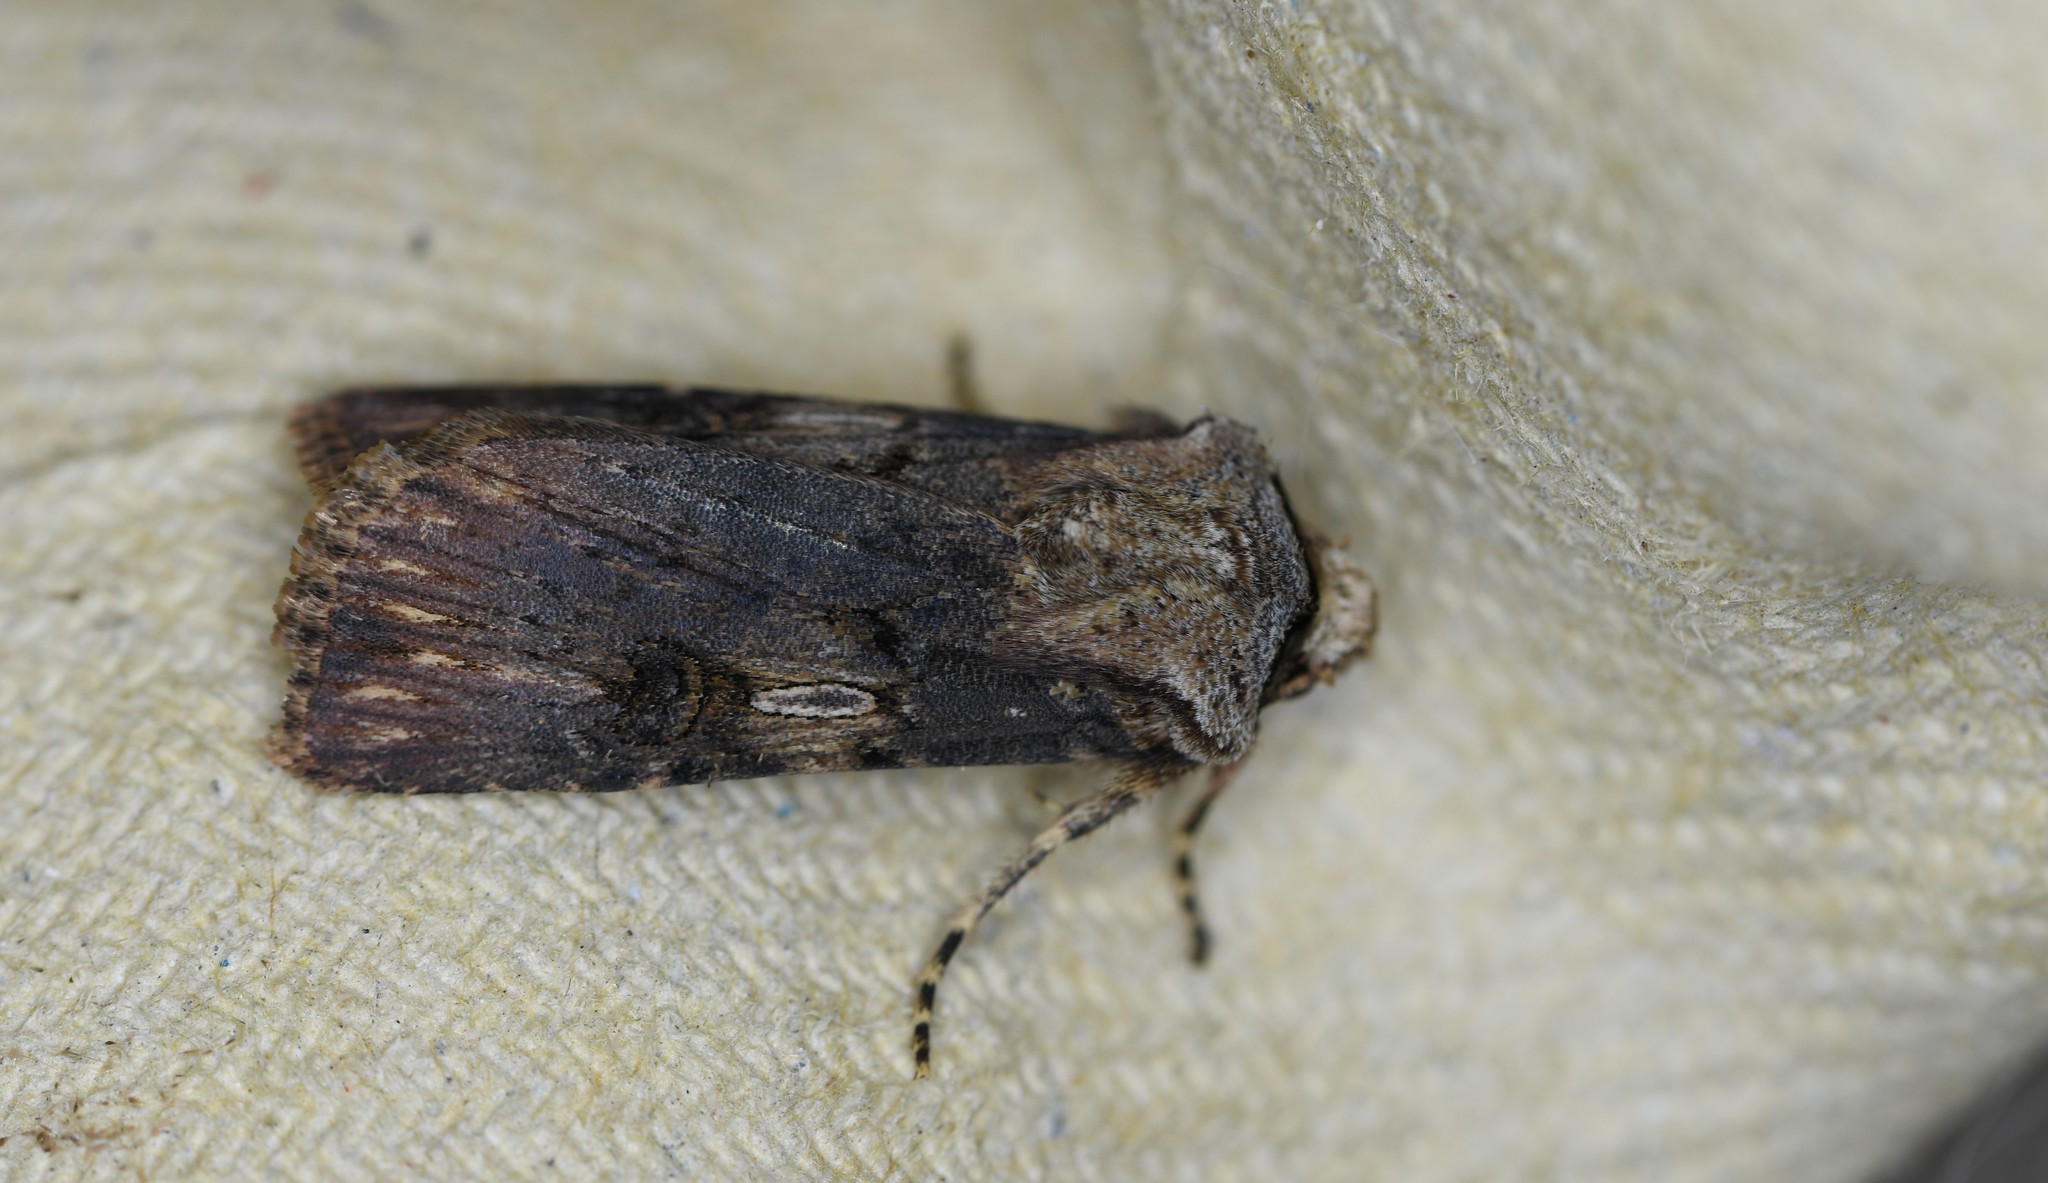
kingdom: Animalia
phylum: Arthropoda
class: Insecta
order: Lepidoptera
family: Noctuidae
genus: Agrotis
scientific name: Agrotis puta
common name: Shuttle-shaped dart
